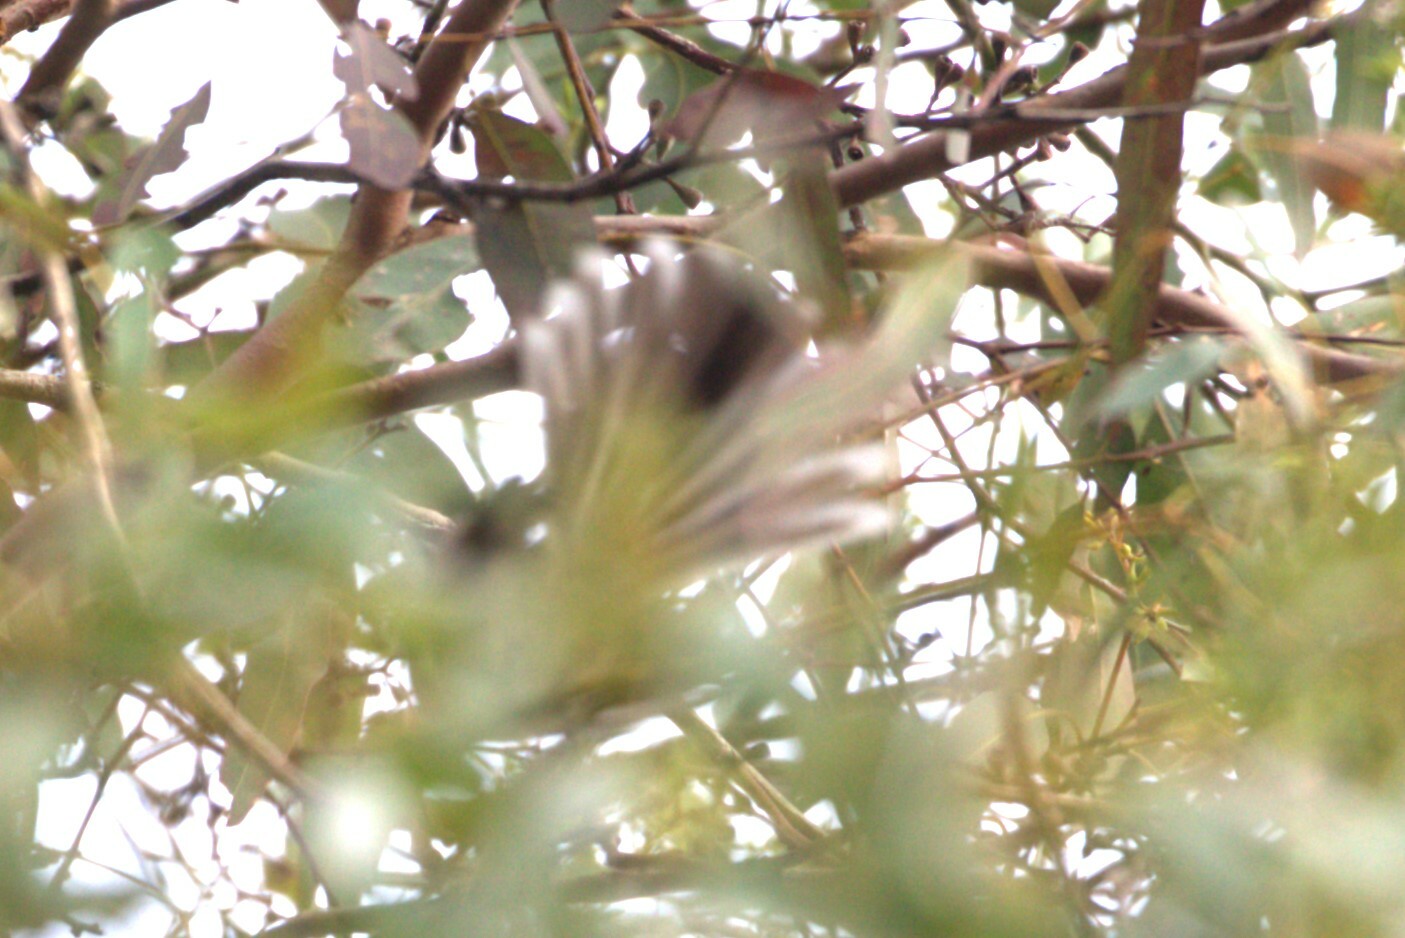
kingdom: Animalia
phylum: Chordata
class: Aves
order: Passeriformes
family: Rhipiduridae
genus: Rhipidura
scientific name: Rhipidura albiscapa
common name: Grey fantail
